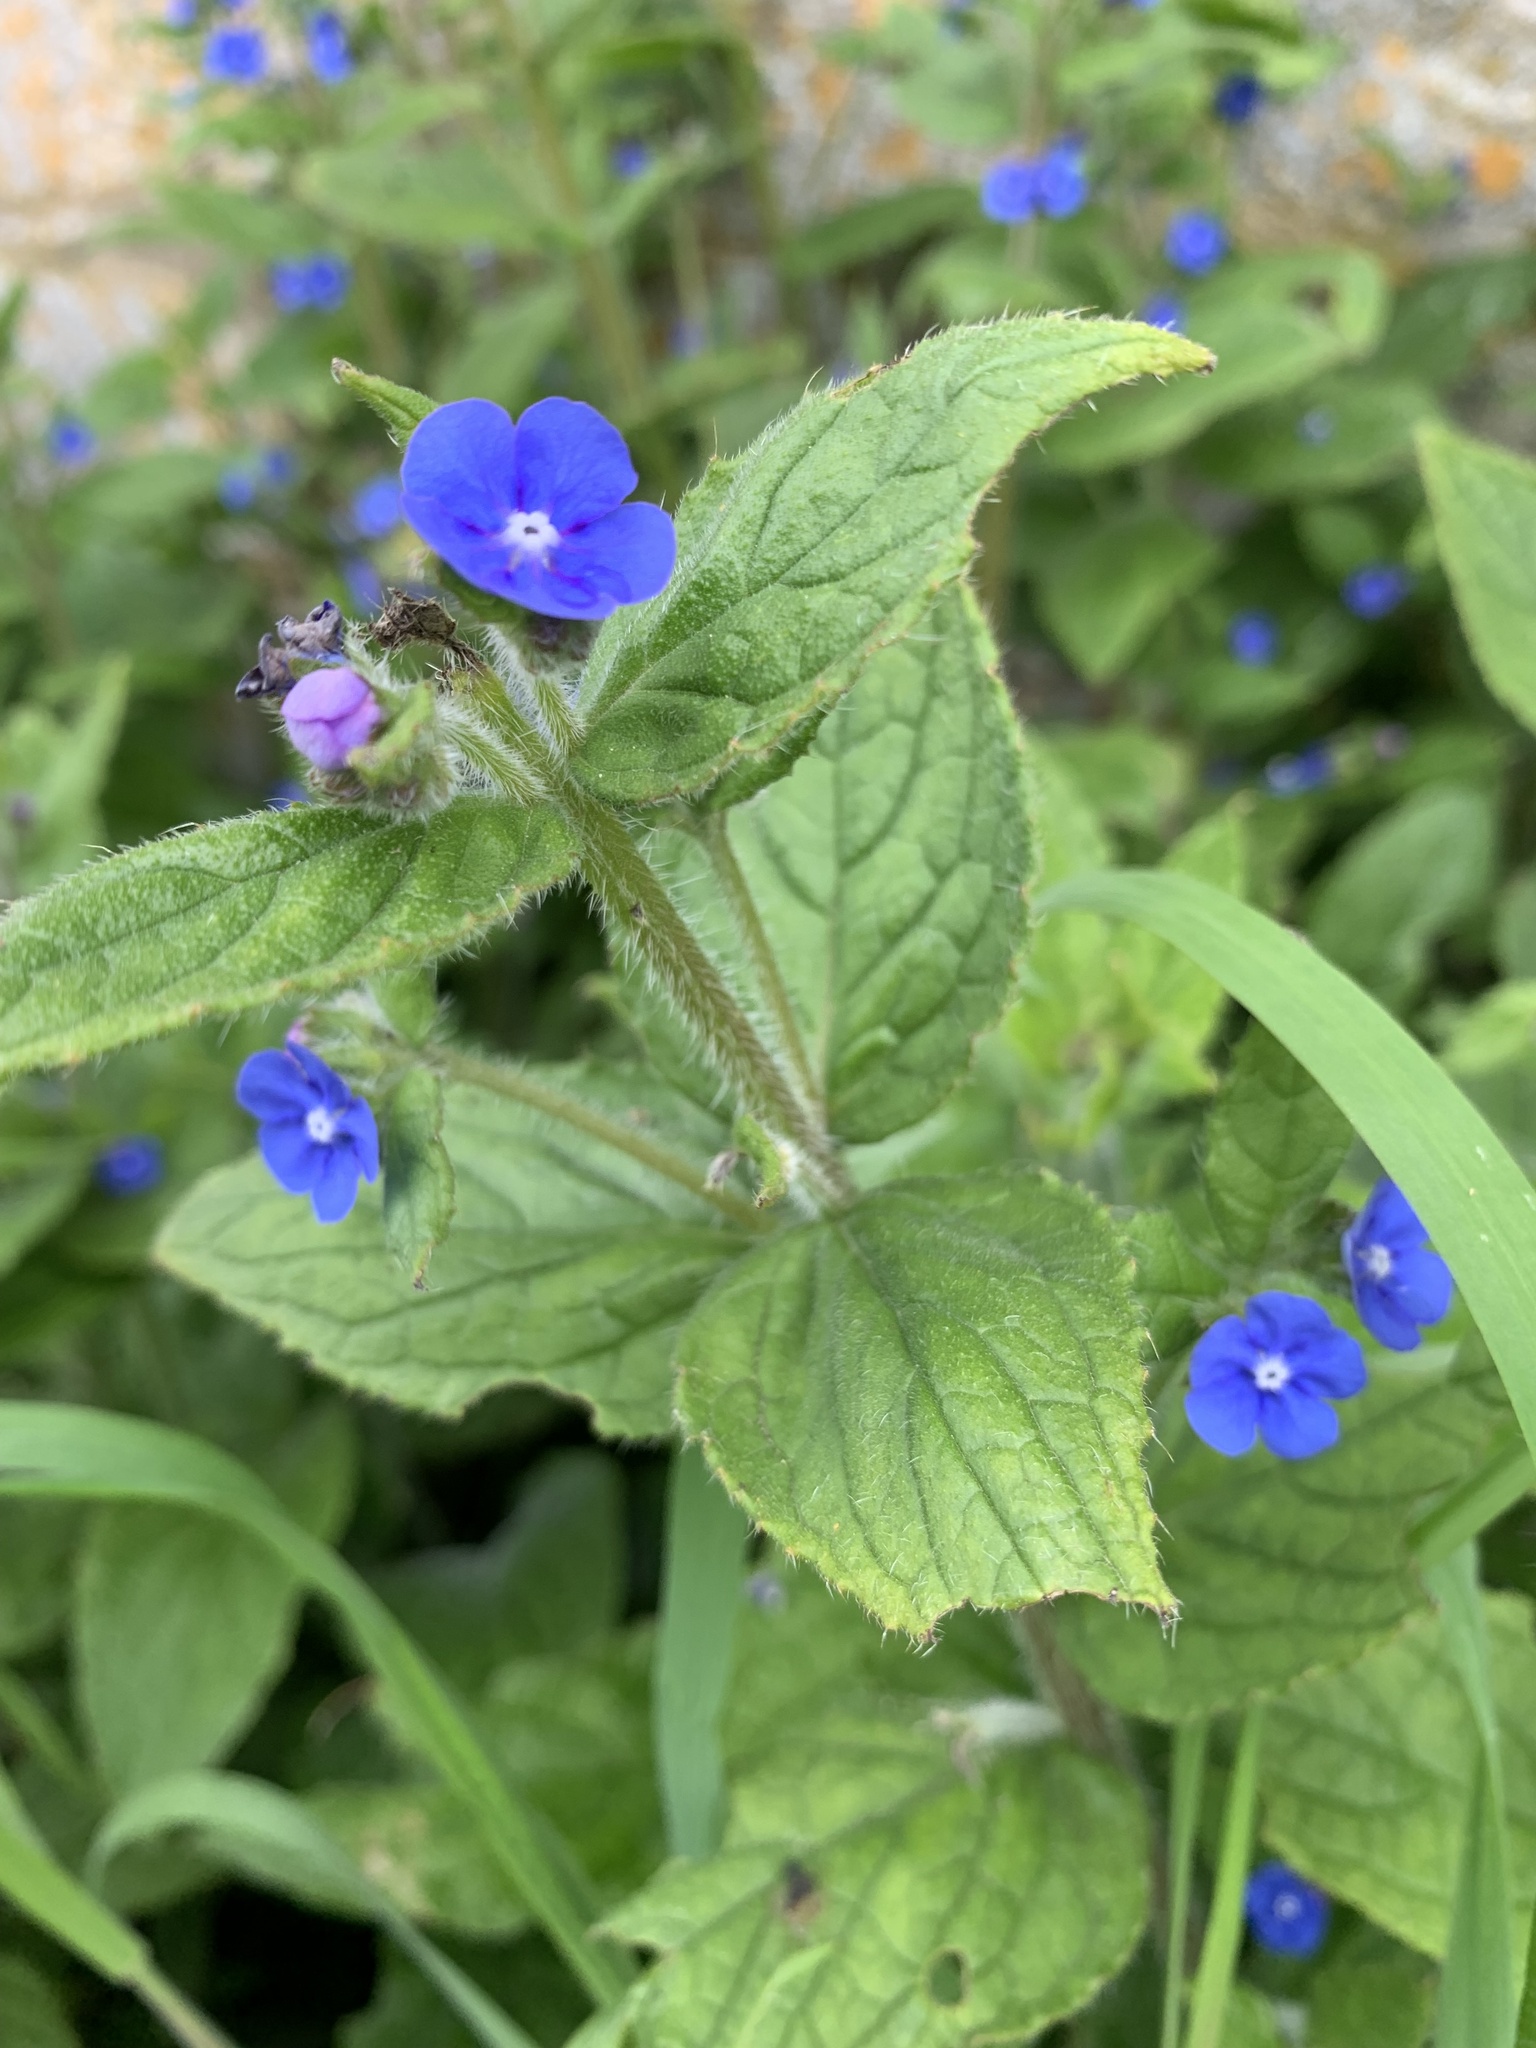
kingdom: Plantae
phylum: Tracheophyta
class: Magnoliopsida
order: Boraginales
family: Boraginaceae
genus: Pentaglottis
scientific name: Pentaglottis sempervirens
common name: Green alkanet
